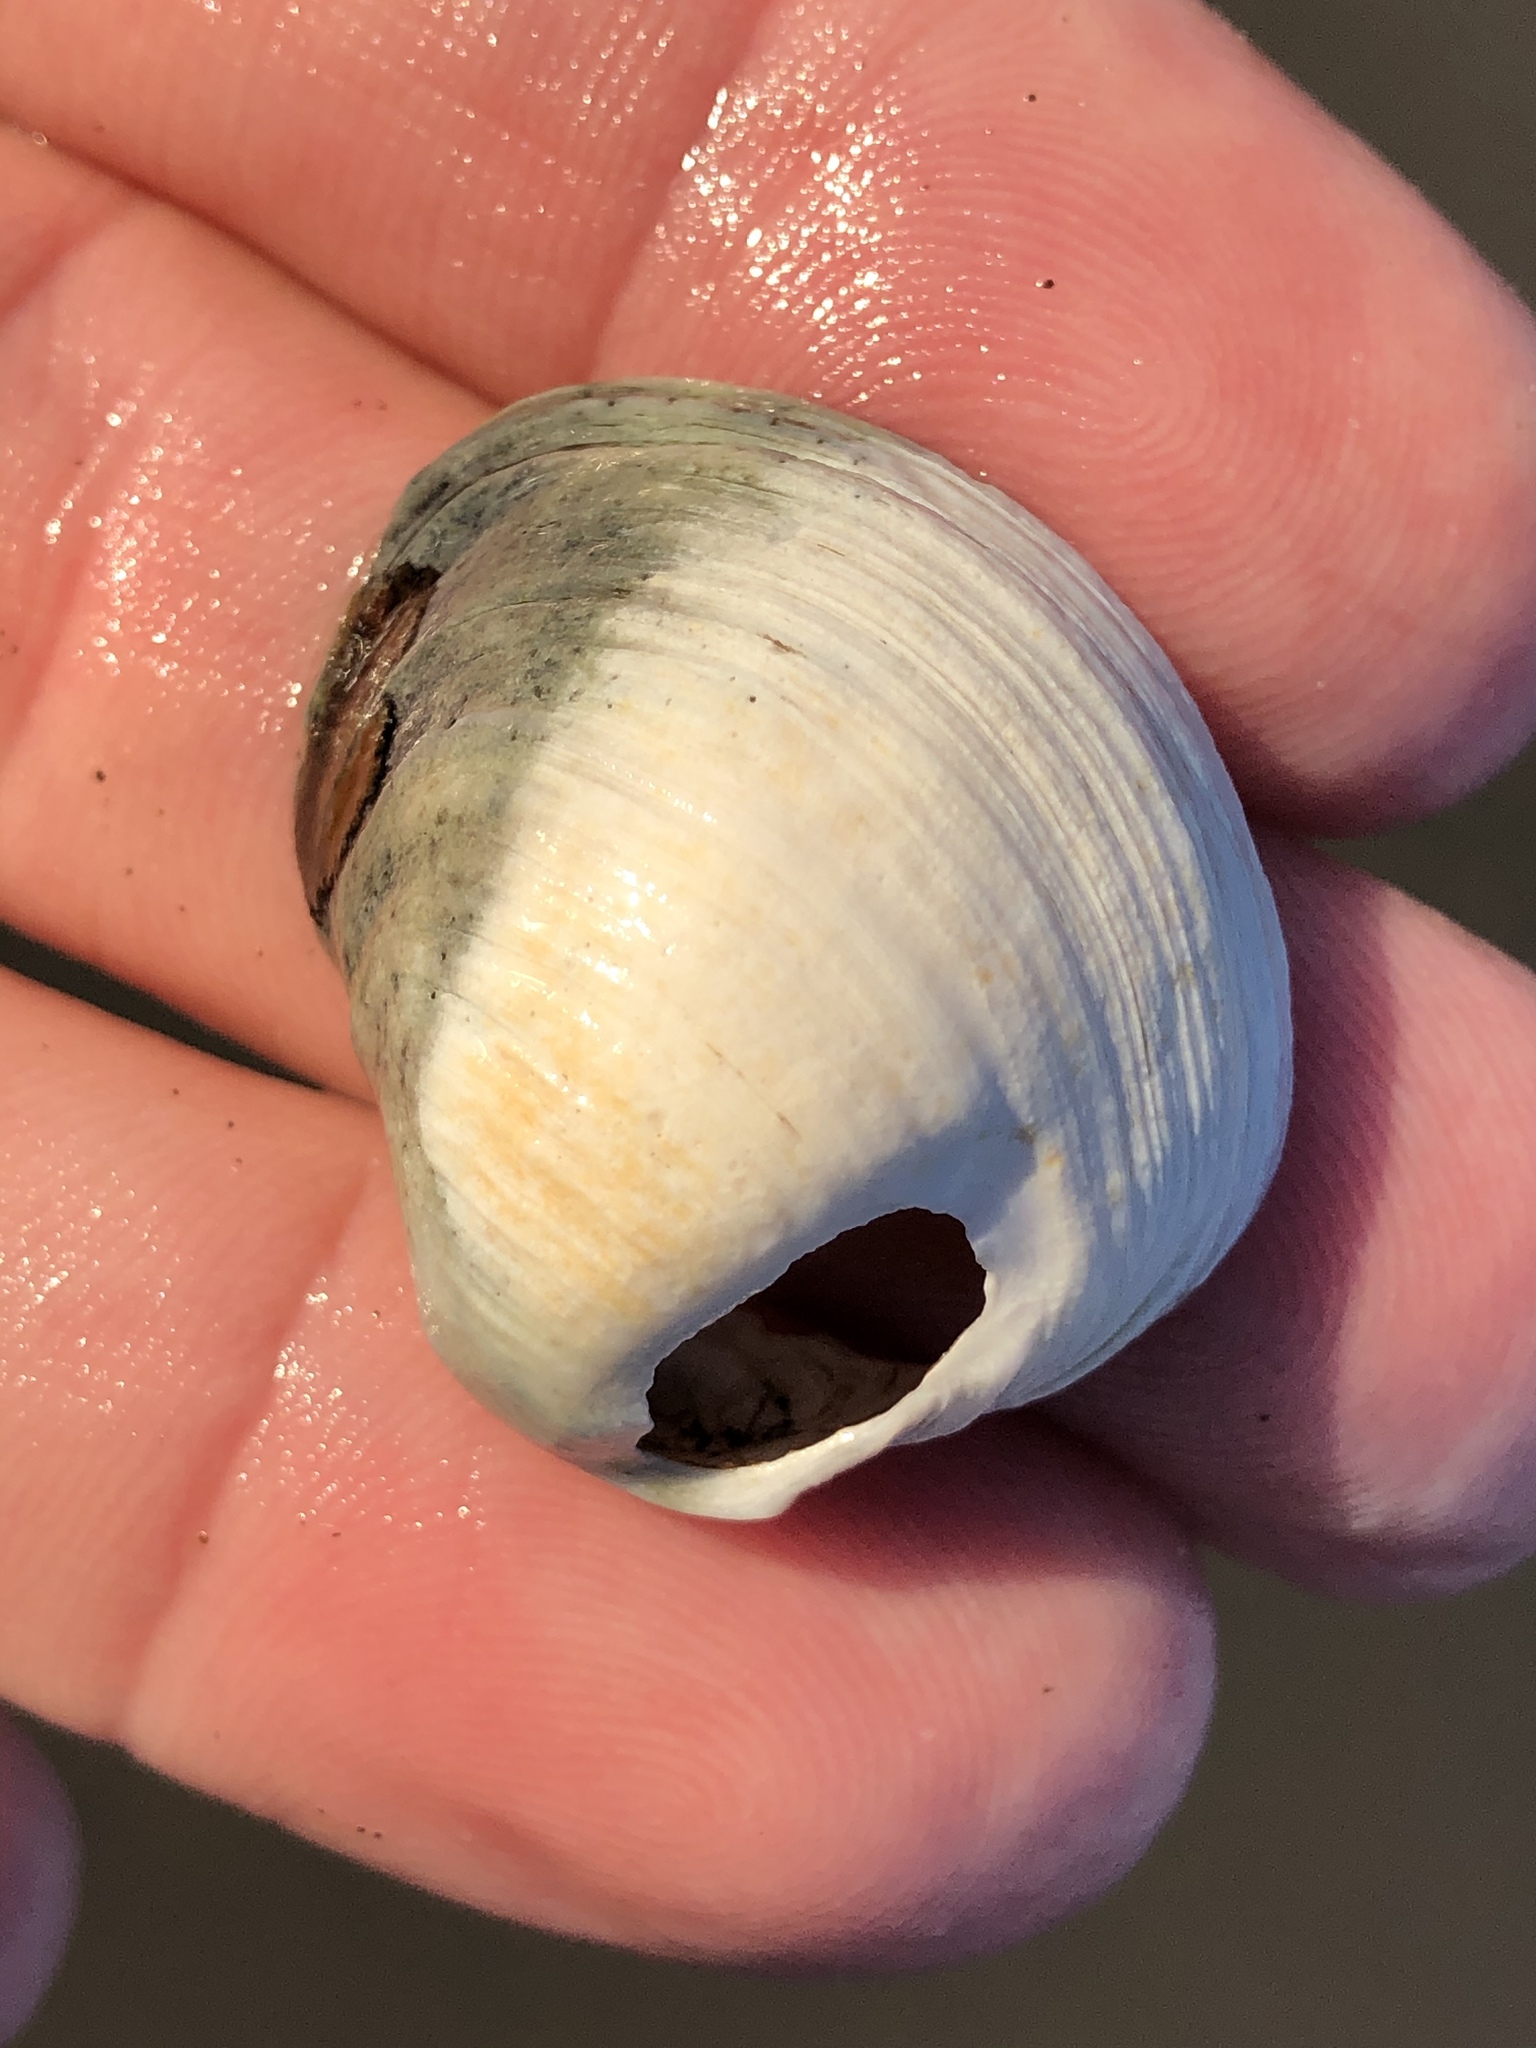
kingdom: Animalia
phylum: Mollusca
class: Bivalvia
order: Venerida
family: Veneridae
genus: Petricola
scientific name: Petricola carditoides
